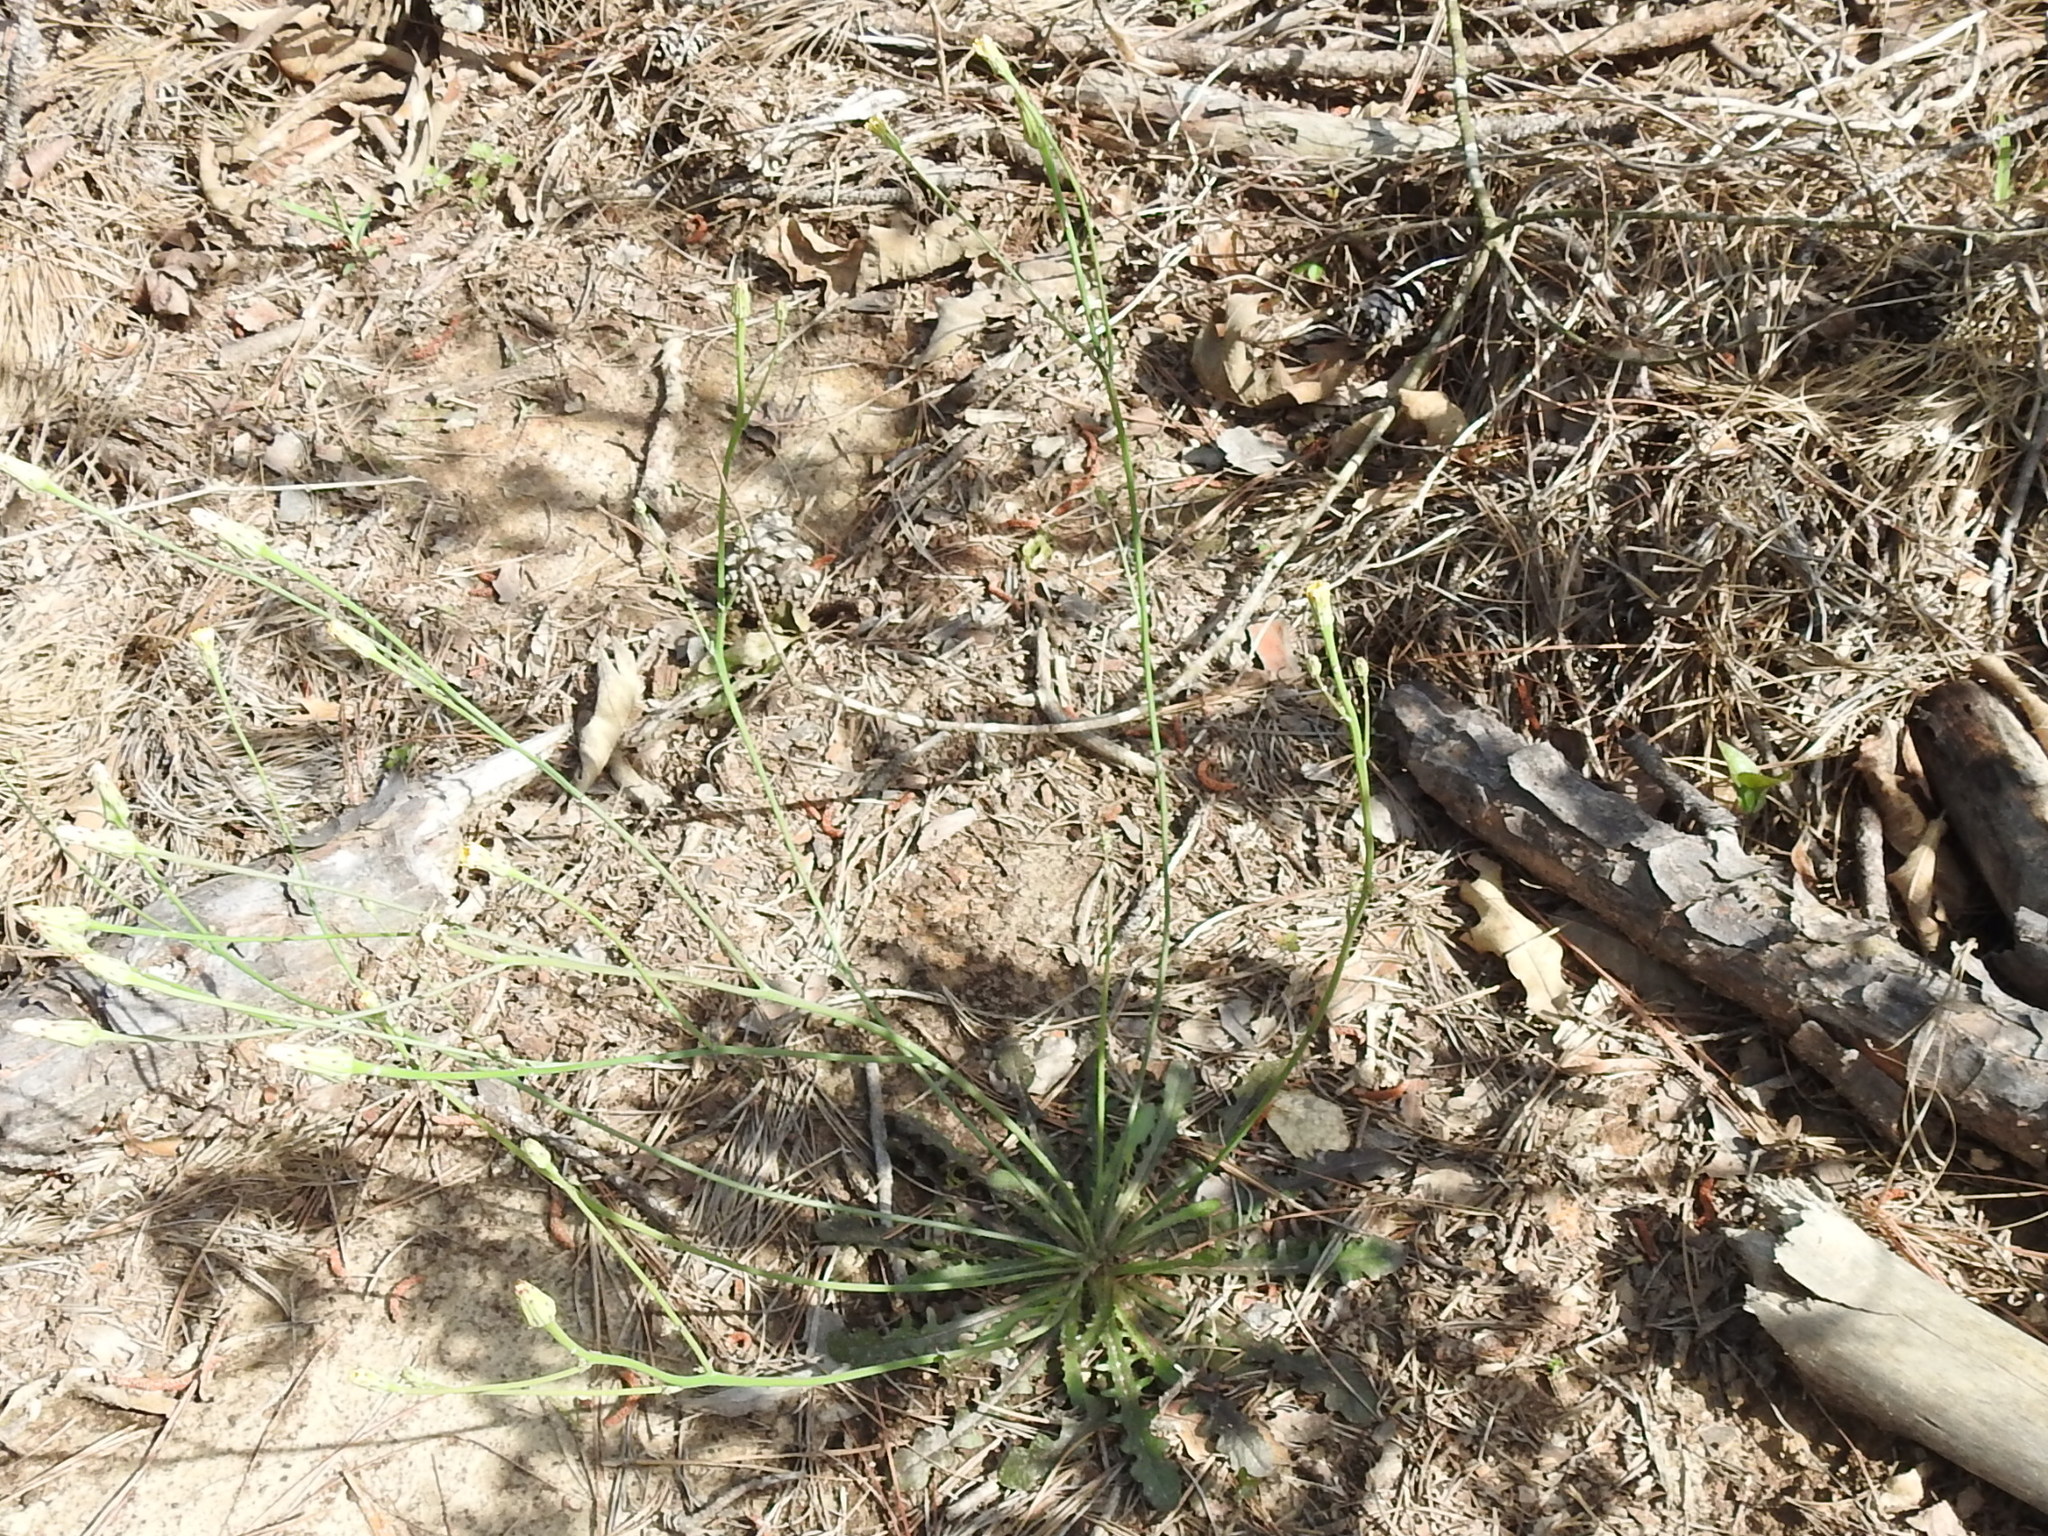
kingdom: Plantae
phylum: Tracheophyta
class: Magnoliopsida
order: Asterales
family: Asteraceae
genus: Hypochaeris
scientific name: Hypochaeris glabra
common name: Smooth catsear
